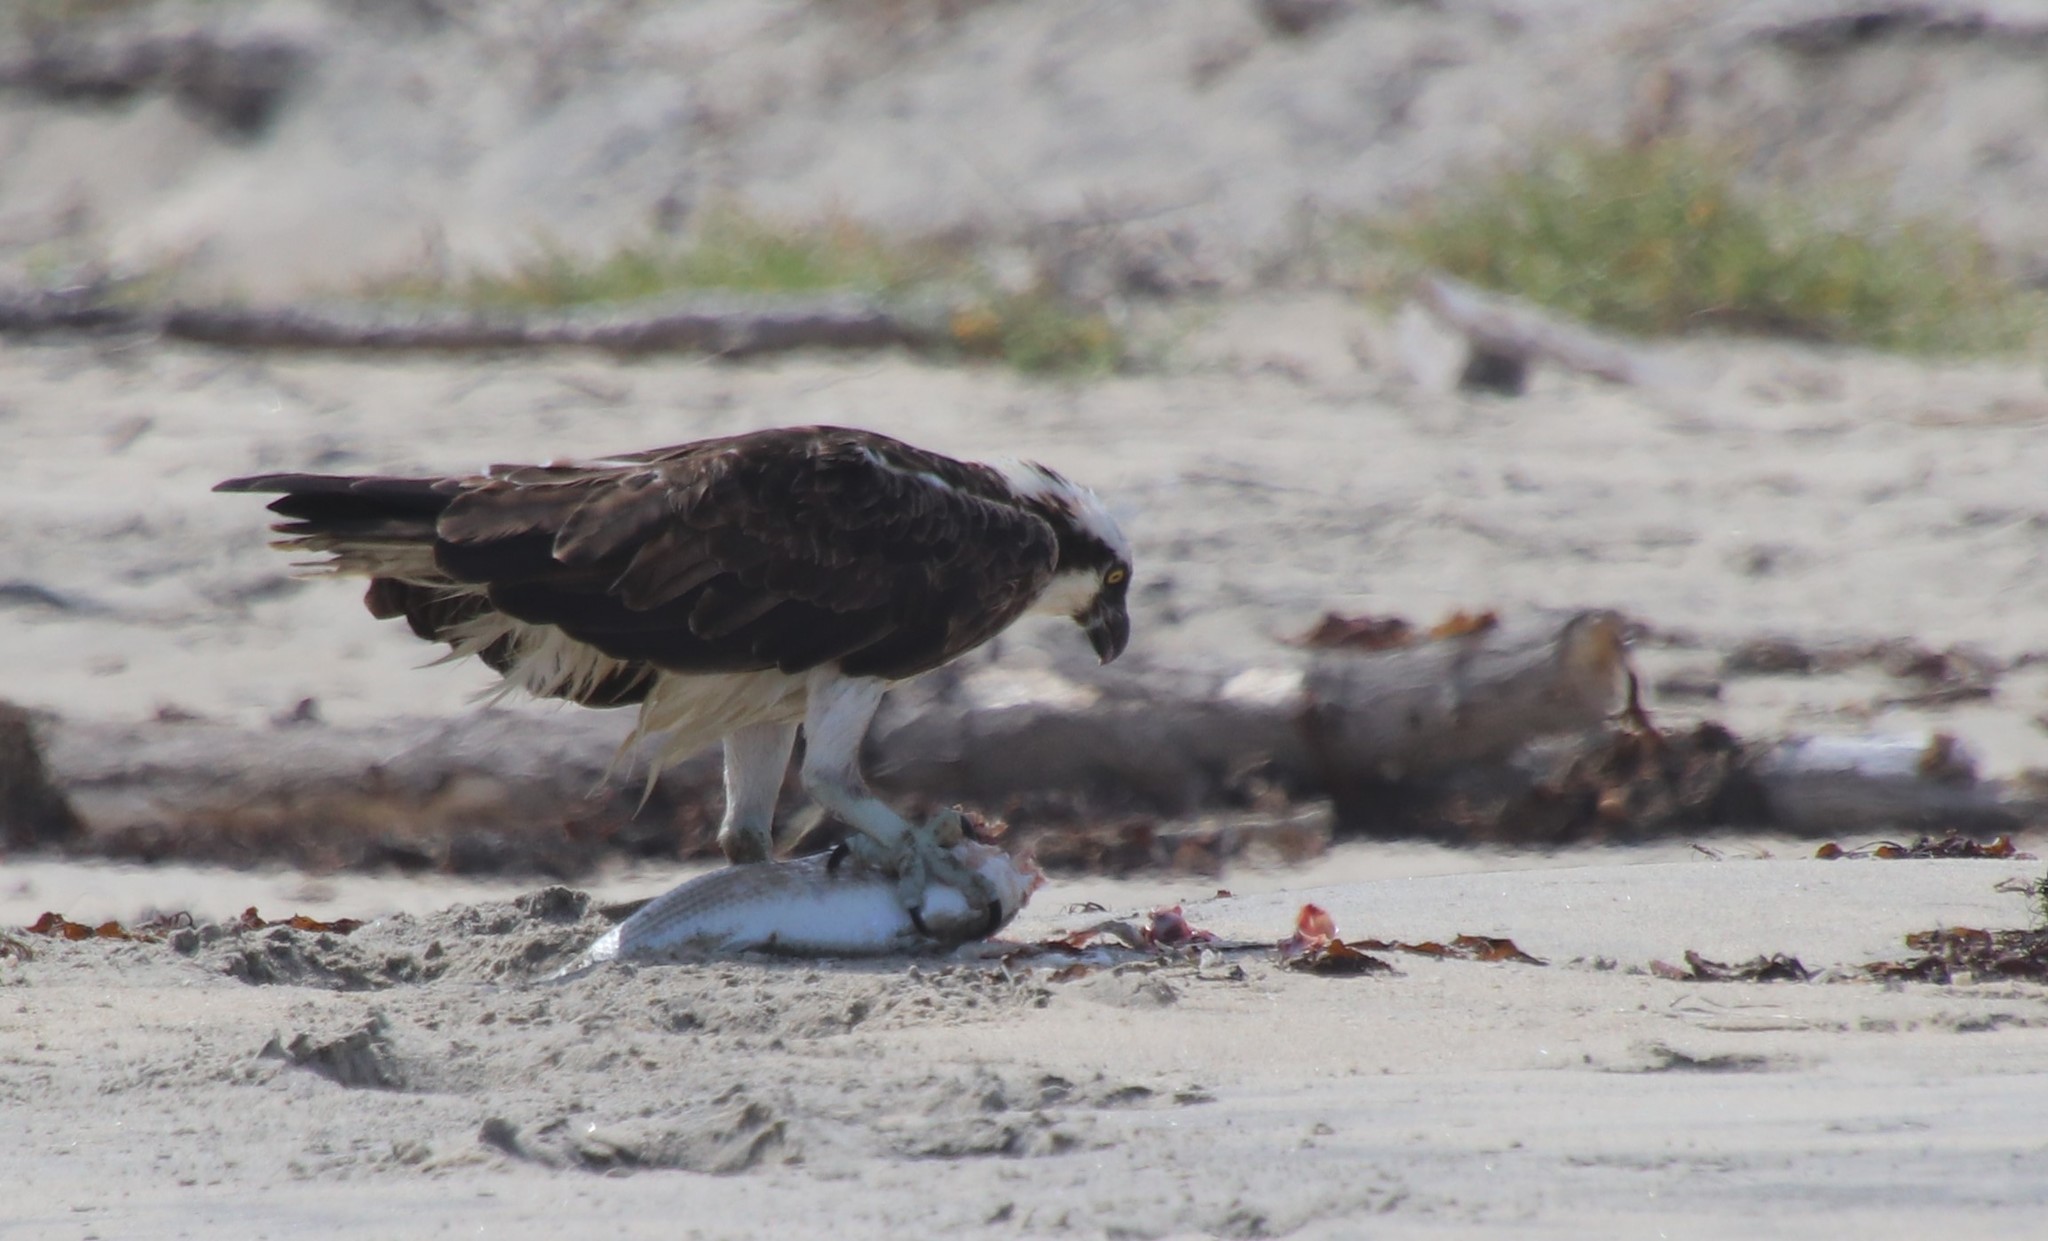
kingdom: Animalia
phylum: Chordata
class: Aves
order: Accipitriformes
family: Pandionidae
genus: Pandion
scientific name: Pandion haliaetus
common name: Osprey
